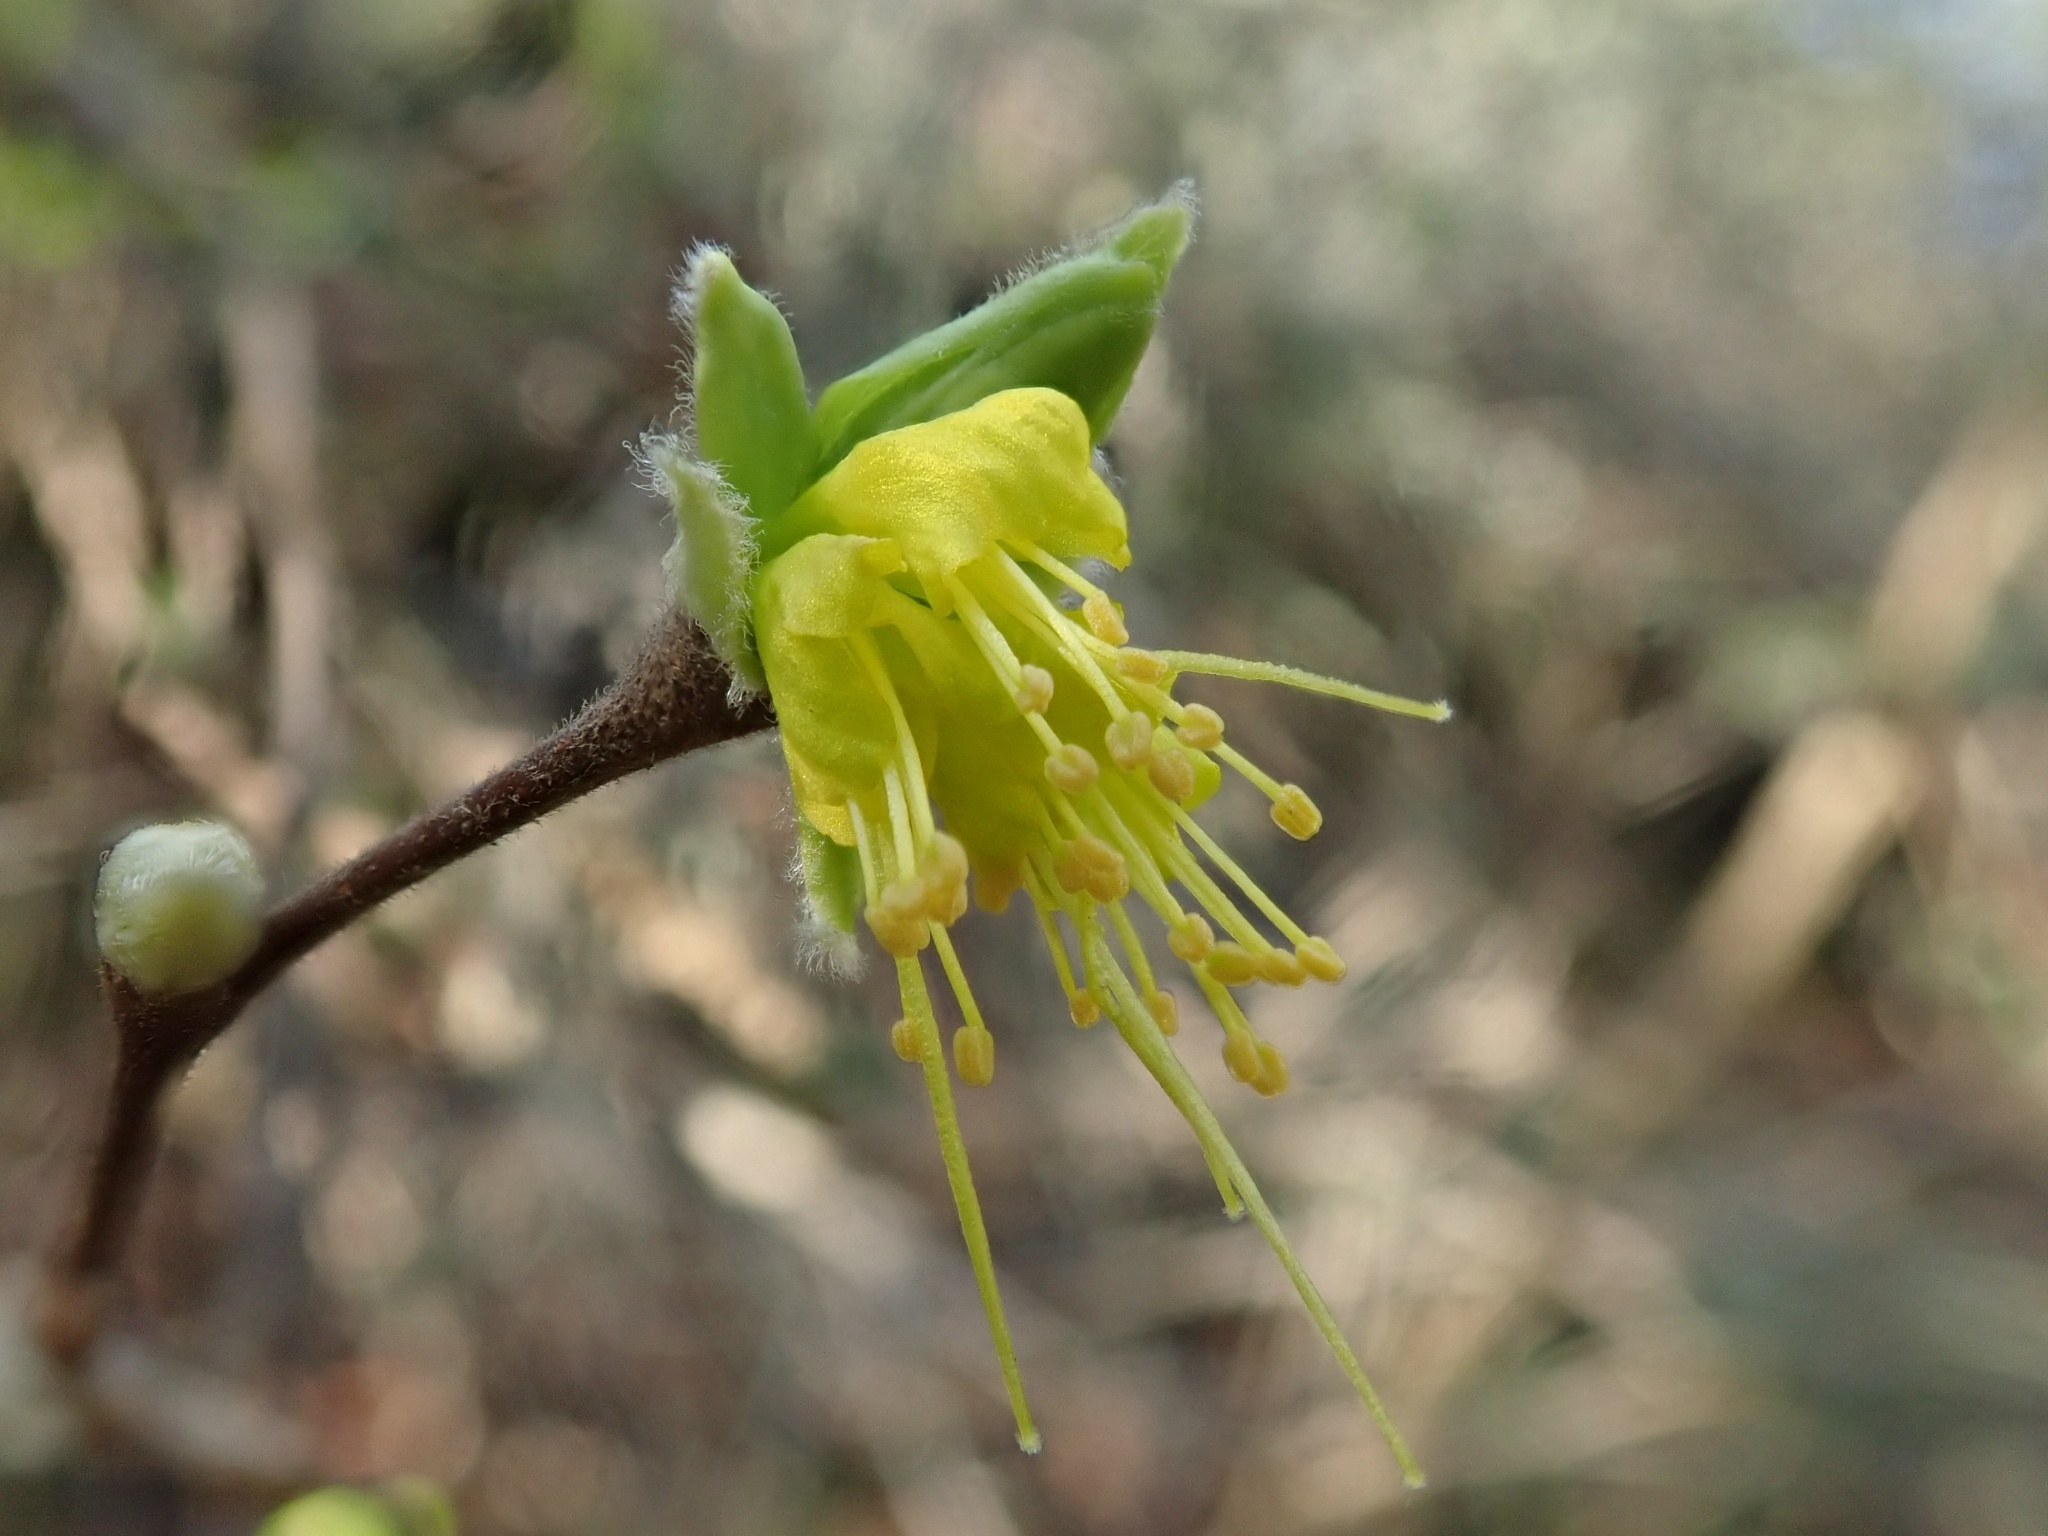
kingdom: Plantae
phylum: Tracheophyta
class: Magnoliopsida
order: Malvales
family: Thymelaeaceae
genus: Dirca
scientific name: Dirca occidentalis
